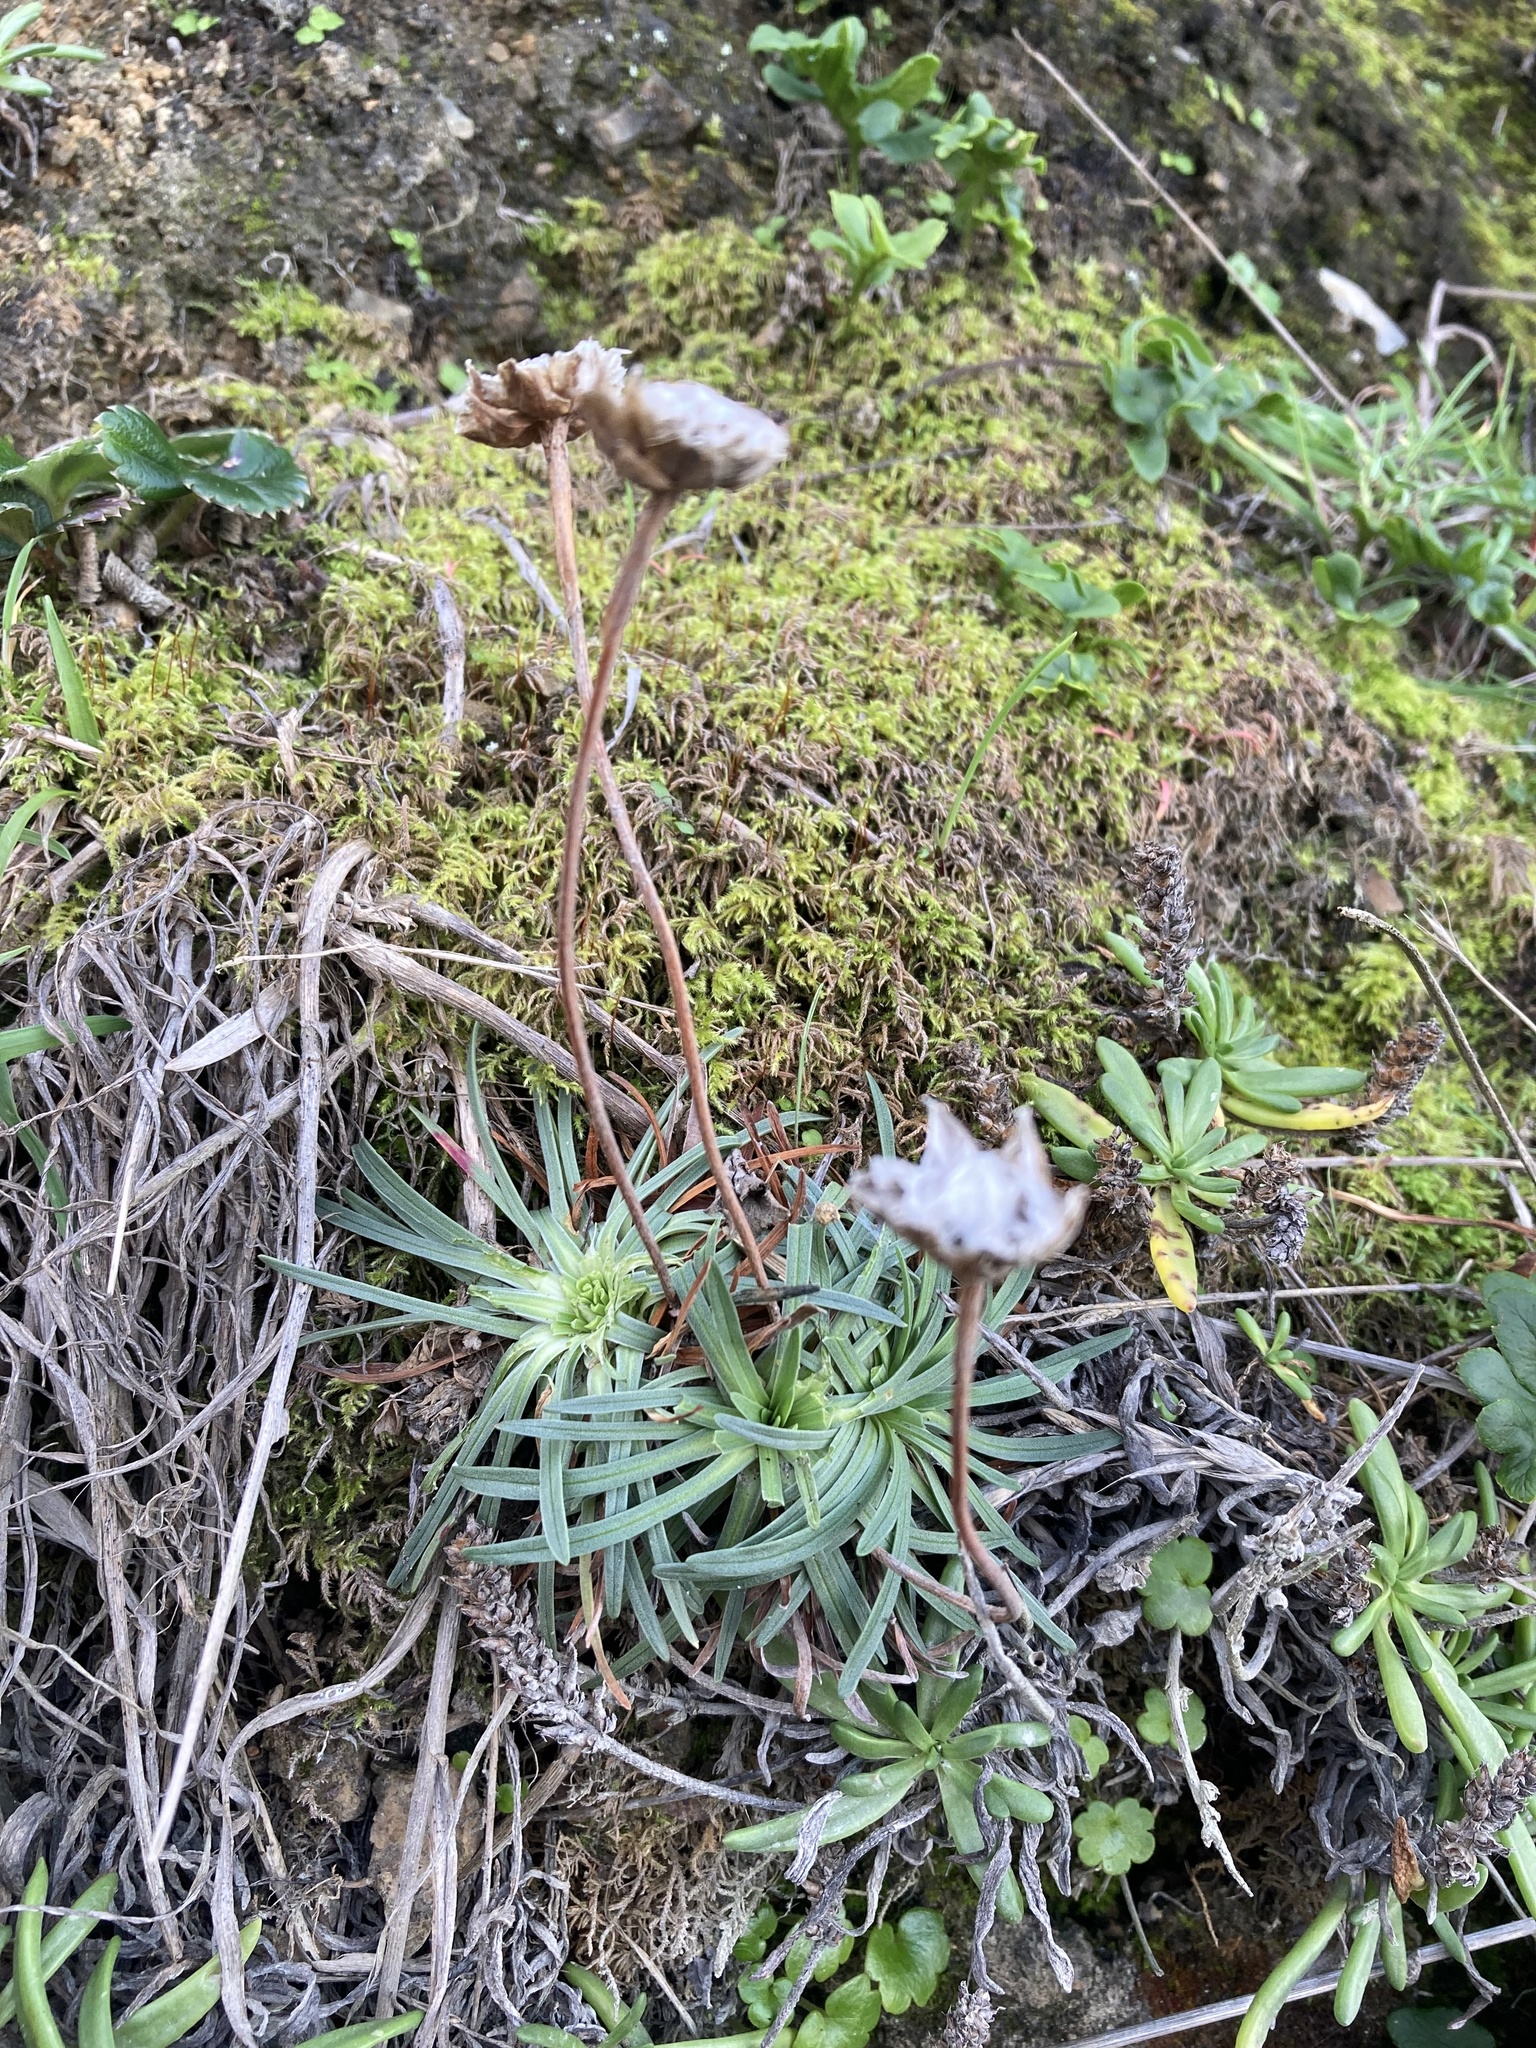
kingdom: Plantae
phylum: Tracheophyta
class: Magnoliopsida
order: Caryophyllales
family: Plumbaginaceae
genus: Armeria
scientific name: Armeria maritima
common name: Thrift
